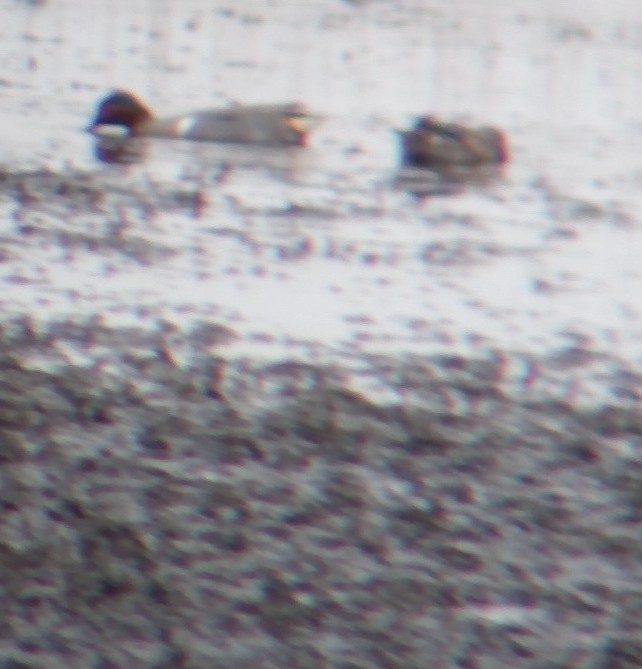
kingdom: Animalia
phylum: Chordata
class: Aves
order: Anseriformes
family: Anatidae
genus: Anas
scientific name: Anas crecca
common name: Eurasian teal
